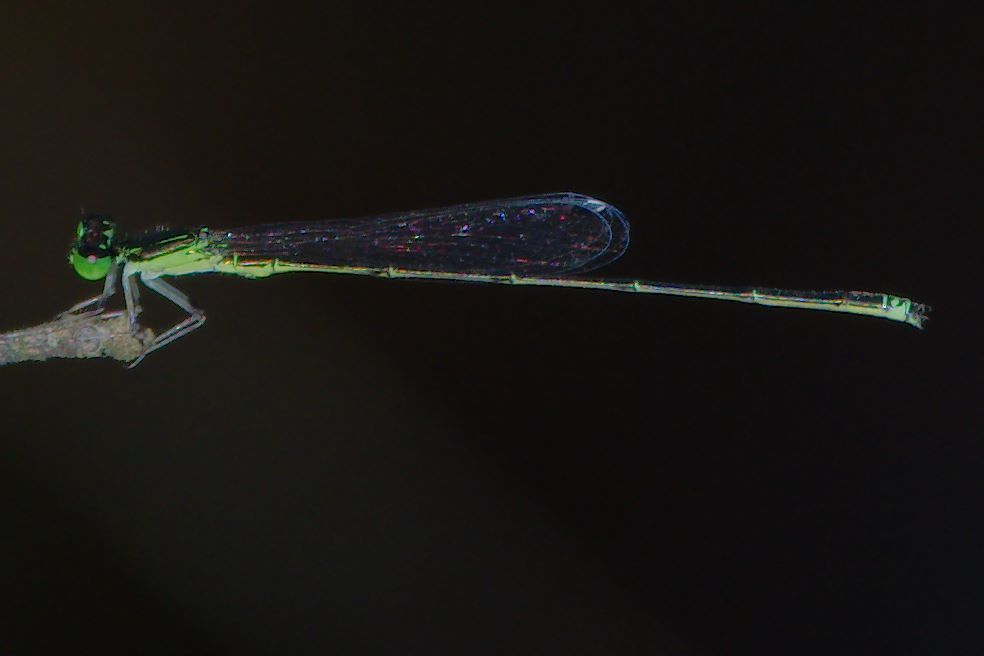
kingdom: Animalia
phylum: Arthropoda
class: Insecta
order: Odonata
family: Coenagrionidae
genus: Ischnura
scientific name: Ischnura prognata
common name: Furtive forktail
